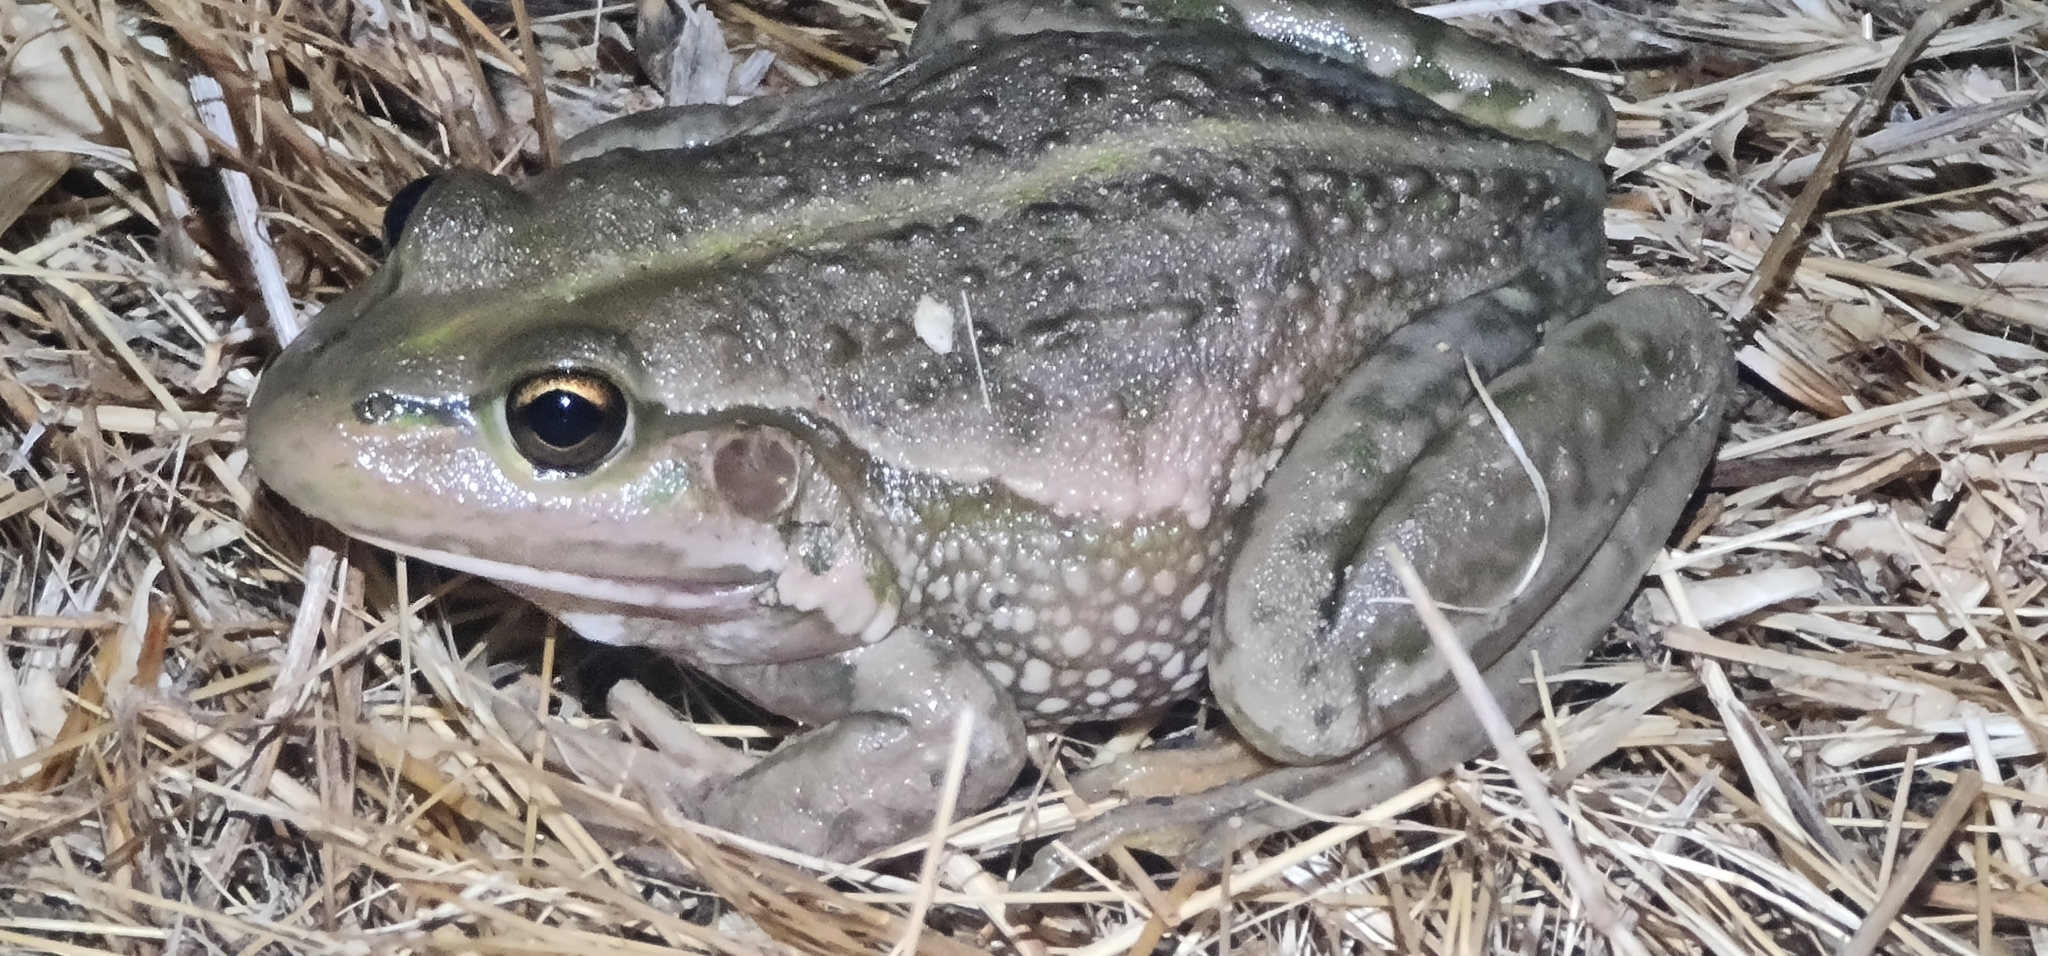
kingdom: Animalia
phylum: Chordata
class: Amphibia
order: Anura
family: Pelodryadidae
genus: Ranoidea
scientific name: Ranoidea raniformis
